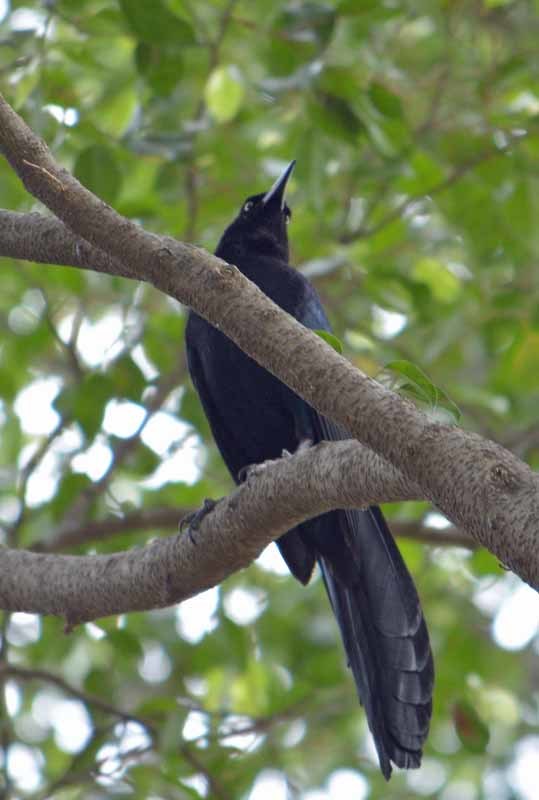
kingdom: Animalia
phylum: Chordata
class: Aves
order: Passeriformes
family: Icteridae
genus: Quiscalus
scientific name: Quiscalus mexicanus
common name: Great-tailed grackle
